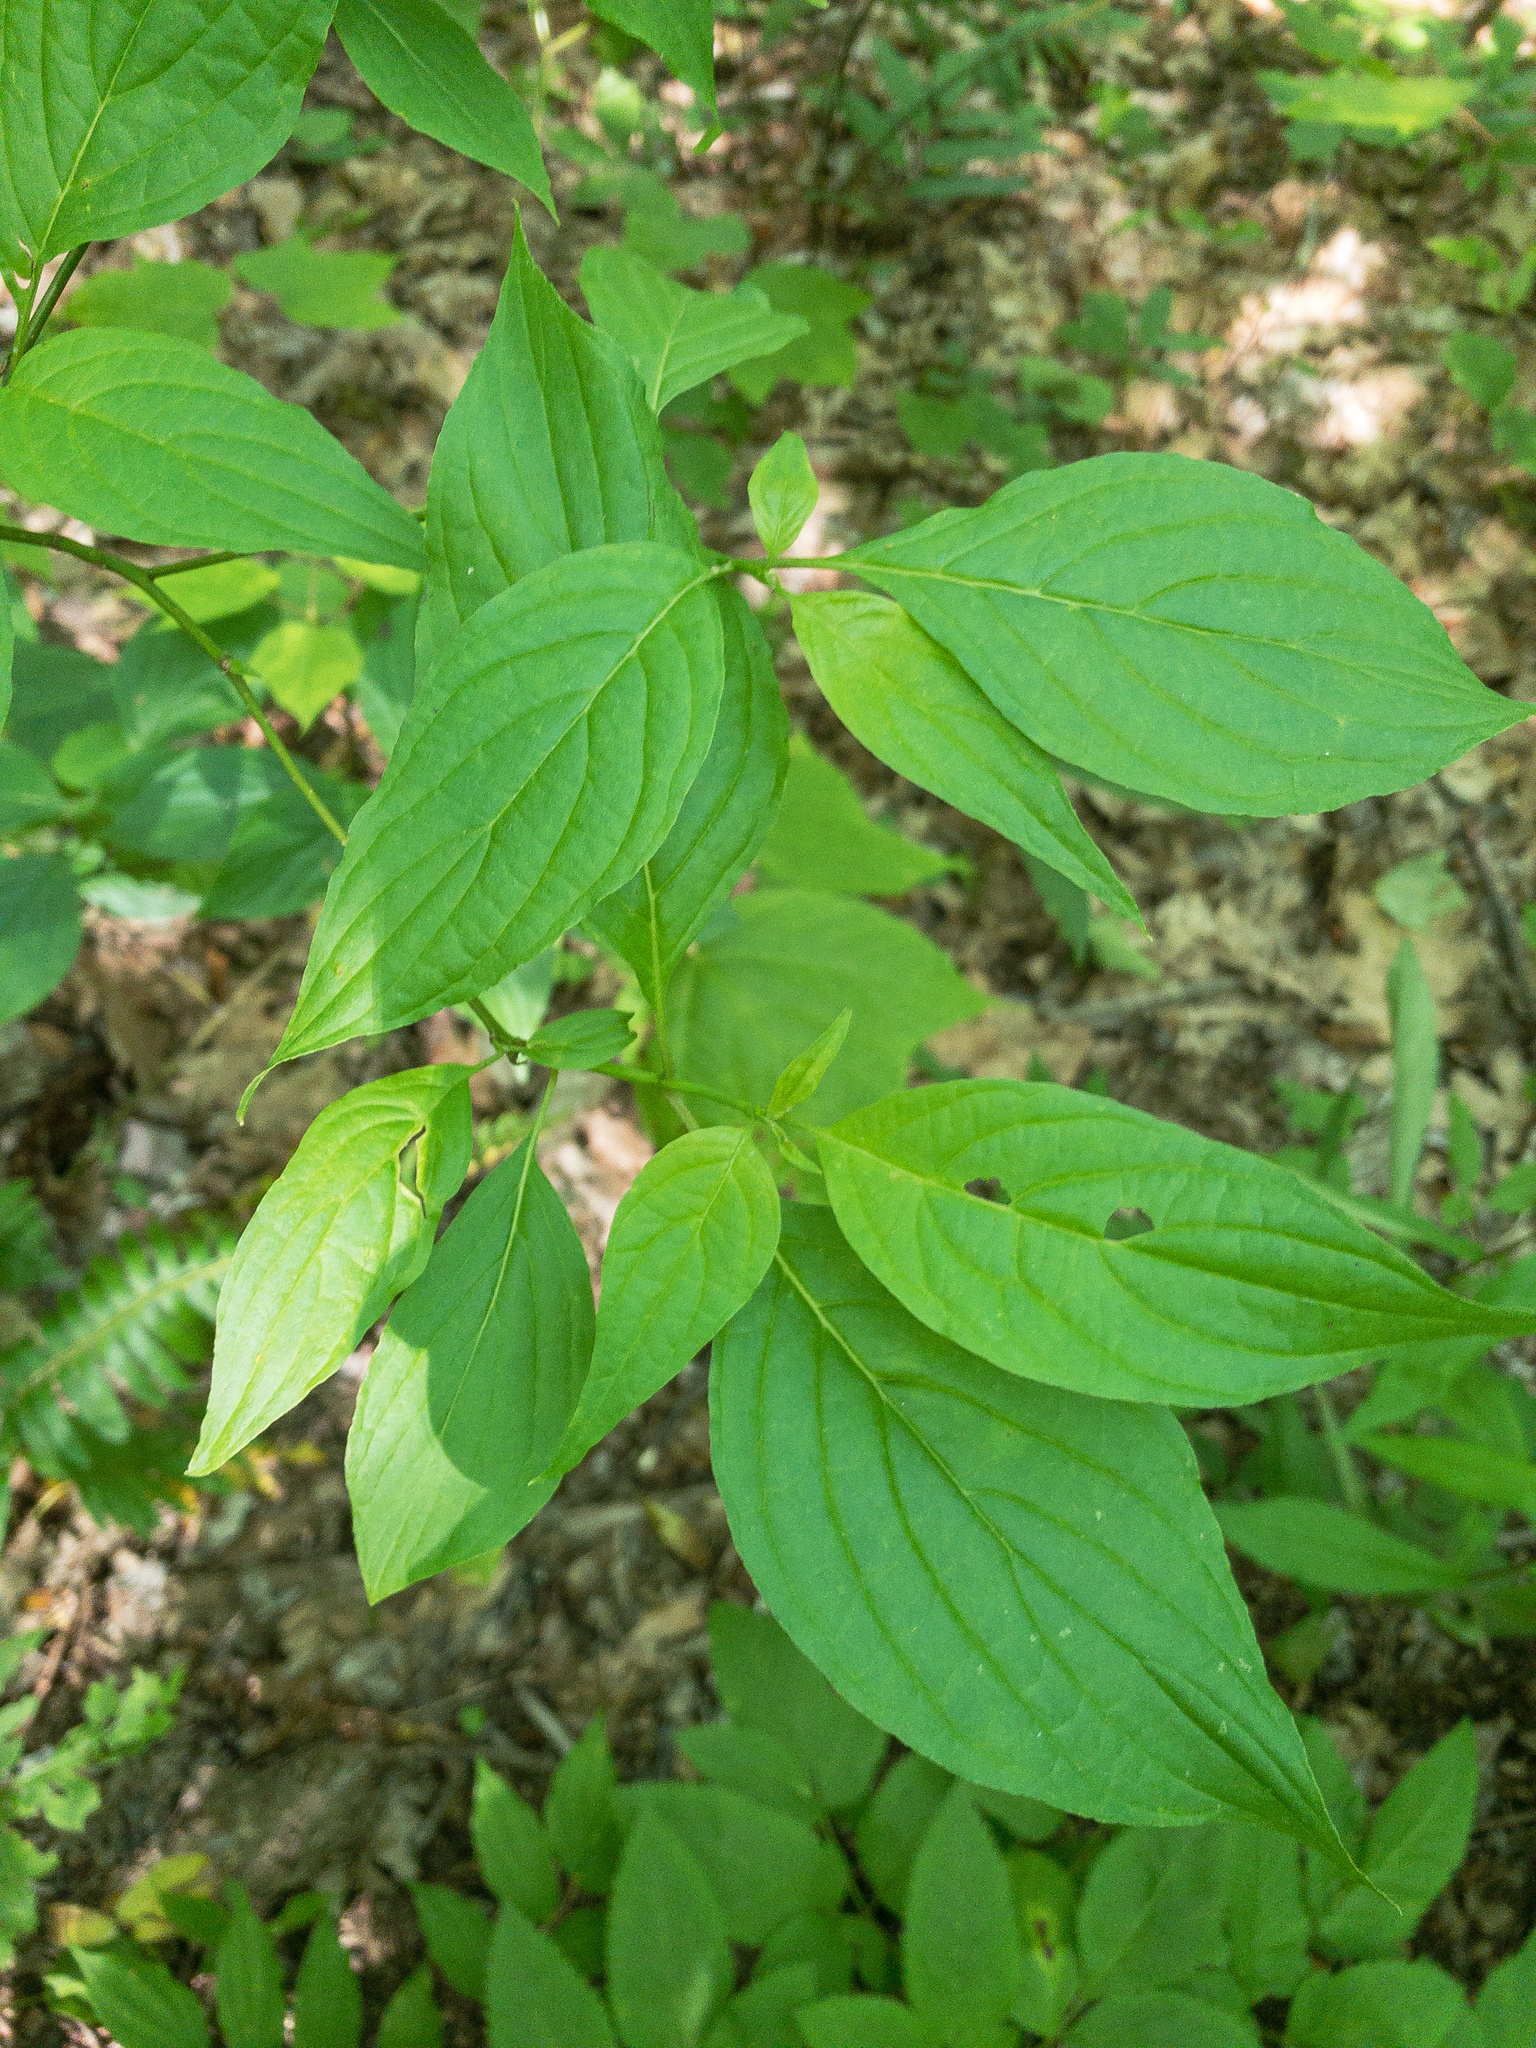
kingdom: Plantae
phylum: Tracheophyta
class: Magnoliopsida
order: Cornales
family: Cornaceae
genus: Cornus
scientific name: Cornus alternifolia
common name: Pagoda dogwood
